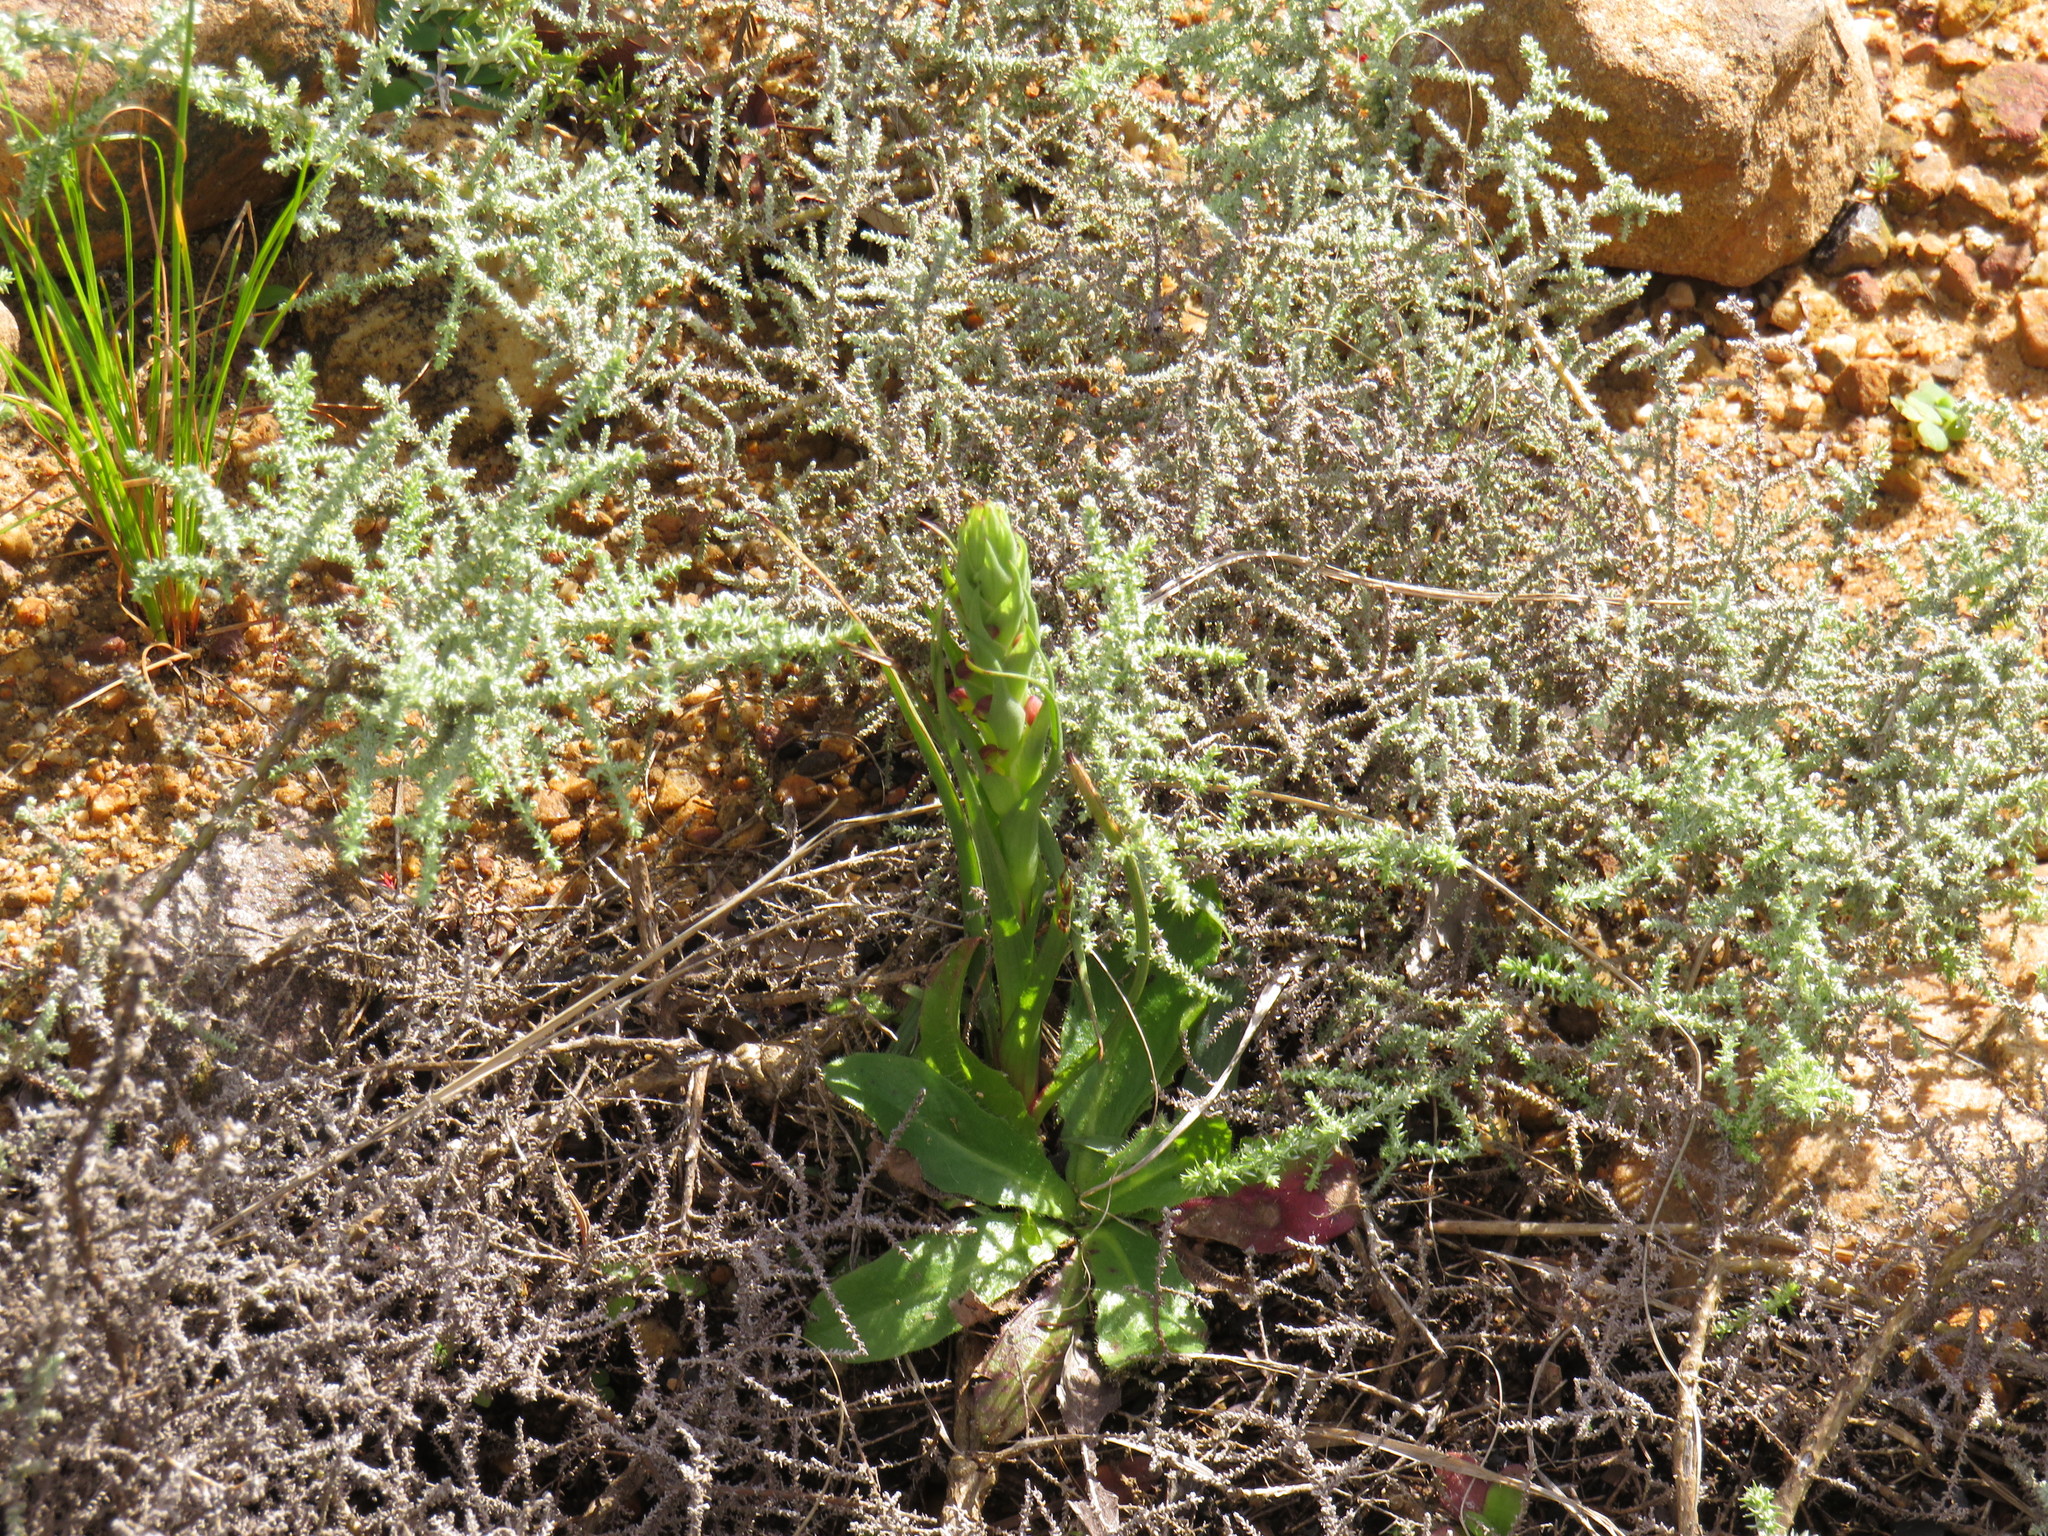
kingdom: Plantae
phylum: Tracheophyta
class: Liliopsida
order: Asparagales
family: Orchidaceae
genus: Disa
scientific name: Disa bracteata
